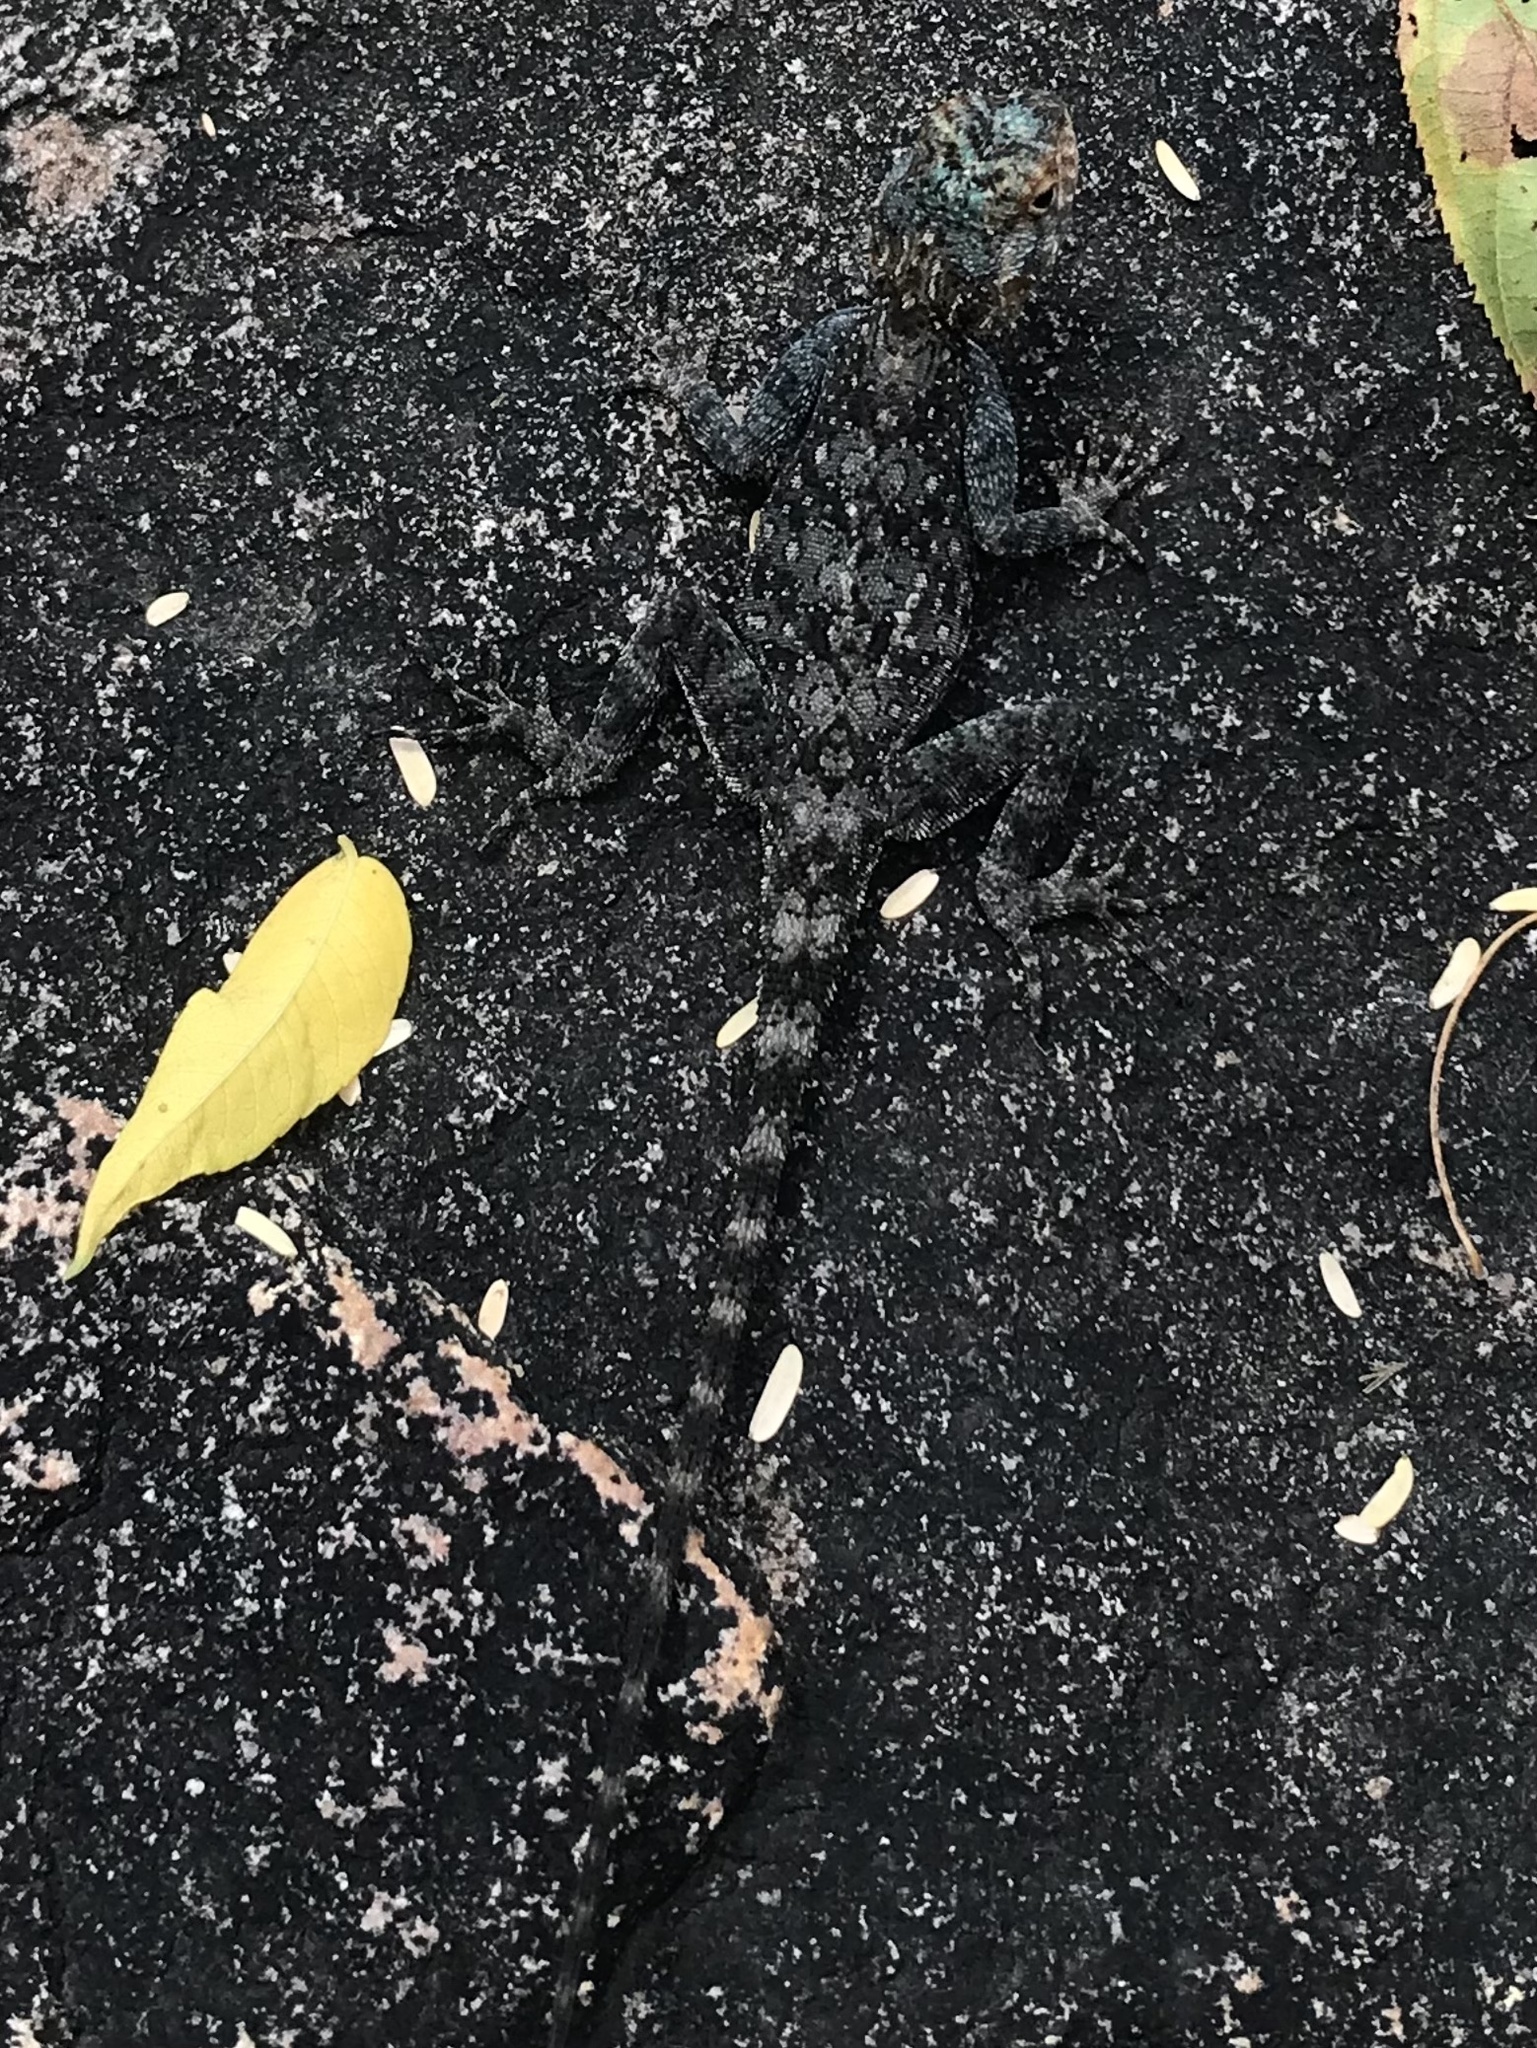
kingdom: Animalia
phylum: Chordata
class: Squamata
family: Agamidae
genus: Agama
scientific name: Agama kirkii
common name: Kirk's rock agama
